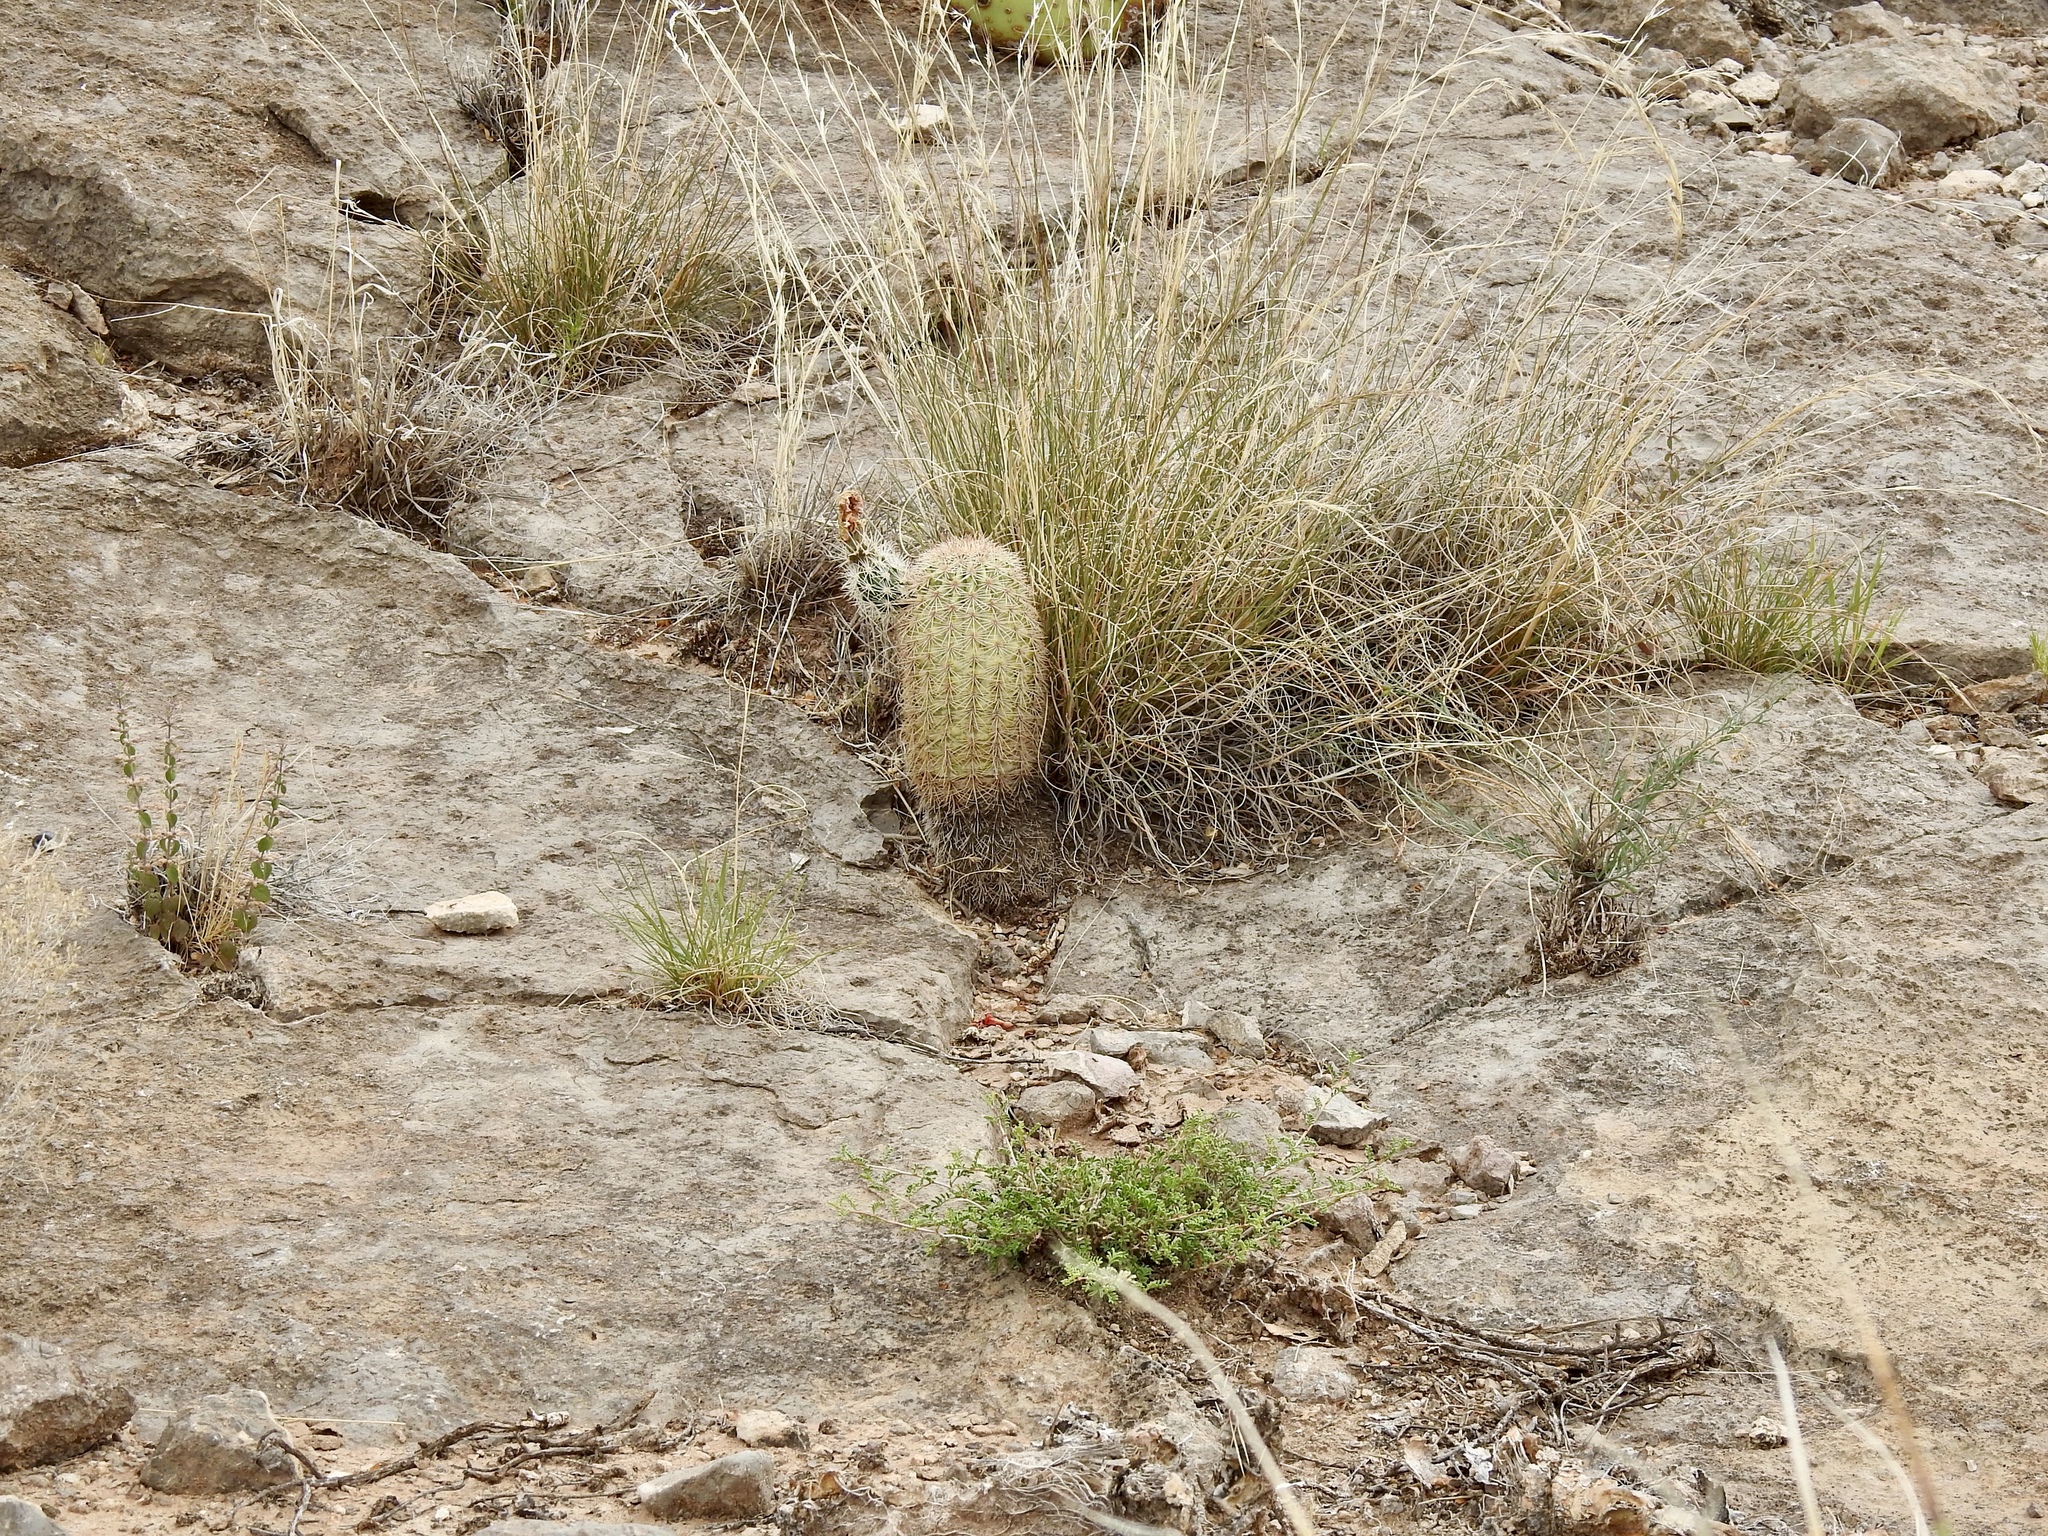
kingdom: Plantae
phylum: Tracheophyta
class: Magnoliopsida
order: Caryophyllales
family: Cactaceae
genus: Echinocereus
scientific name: Echinocereus dasyacanthus
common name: Spiny hedgehog cactus
